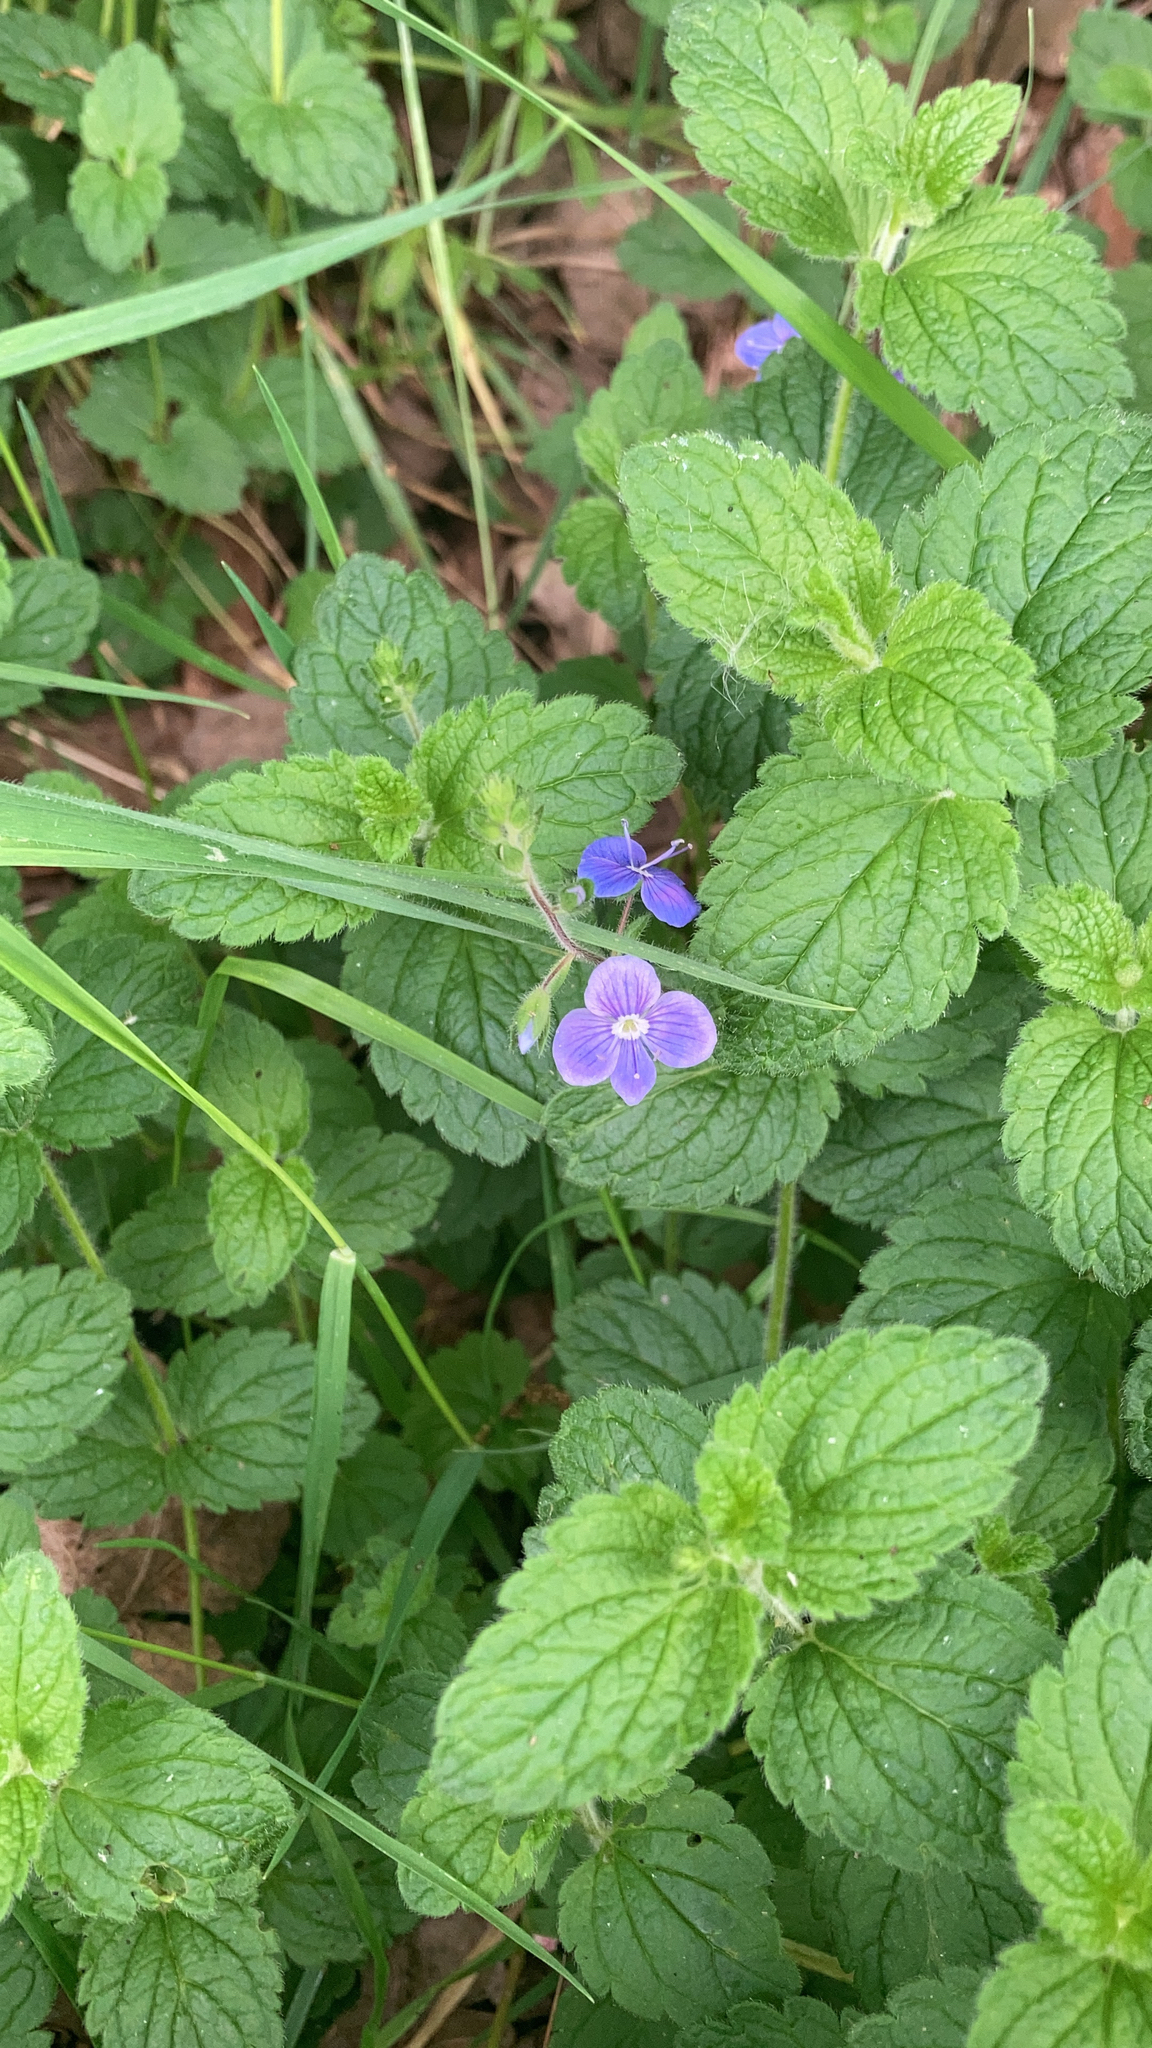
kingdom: Plantae
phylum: Tracheophyta
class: Magnoliopsida
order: Lamiales
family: Plantaginaceae
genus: Veronica
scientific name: Veronica chamaedrys
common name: Germander speedwell
